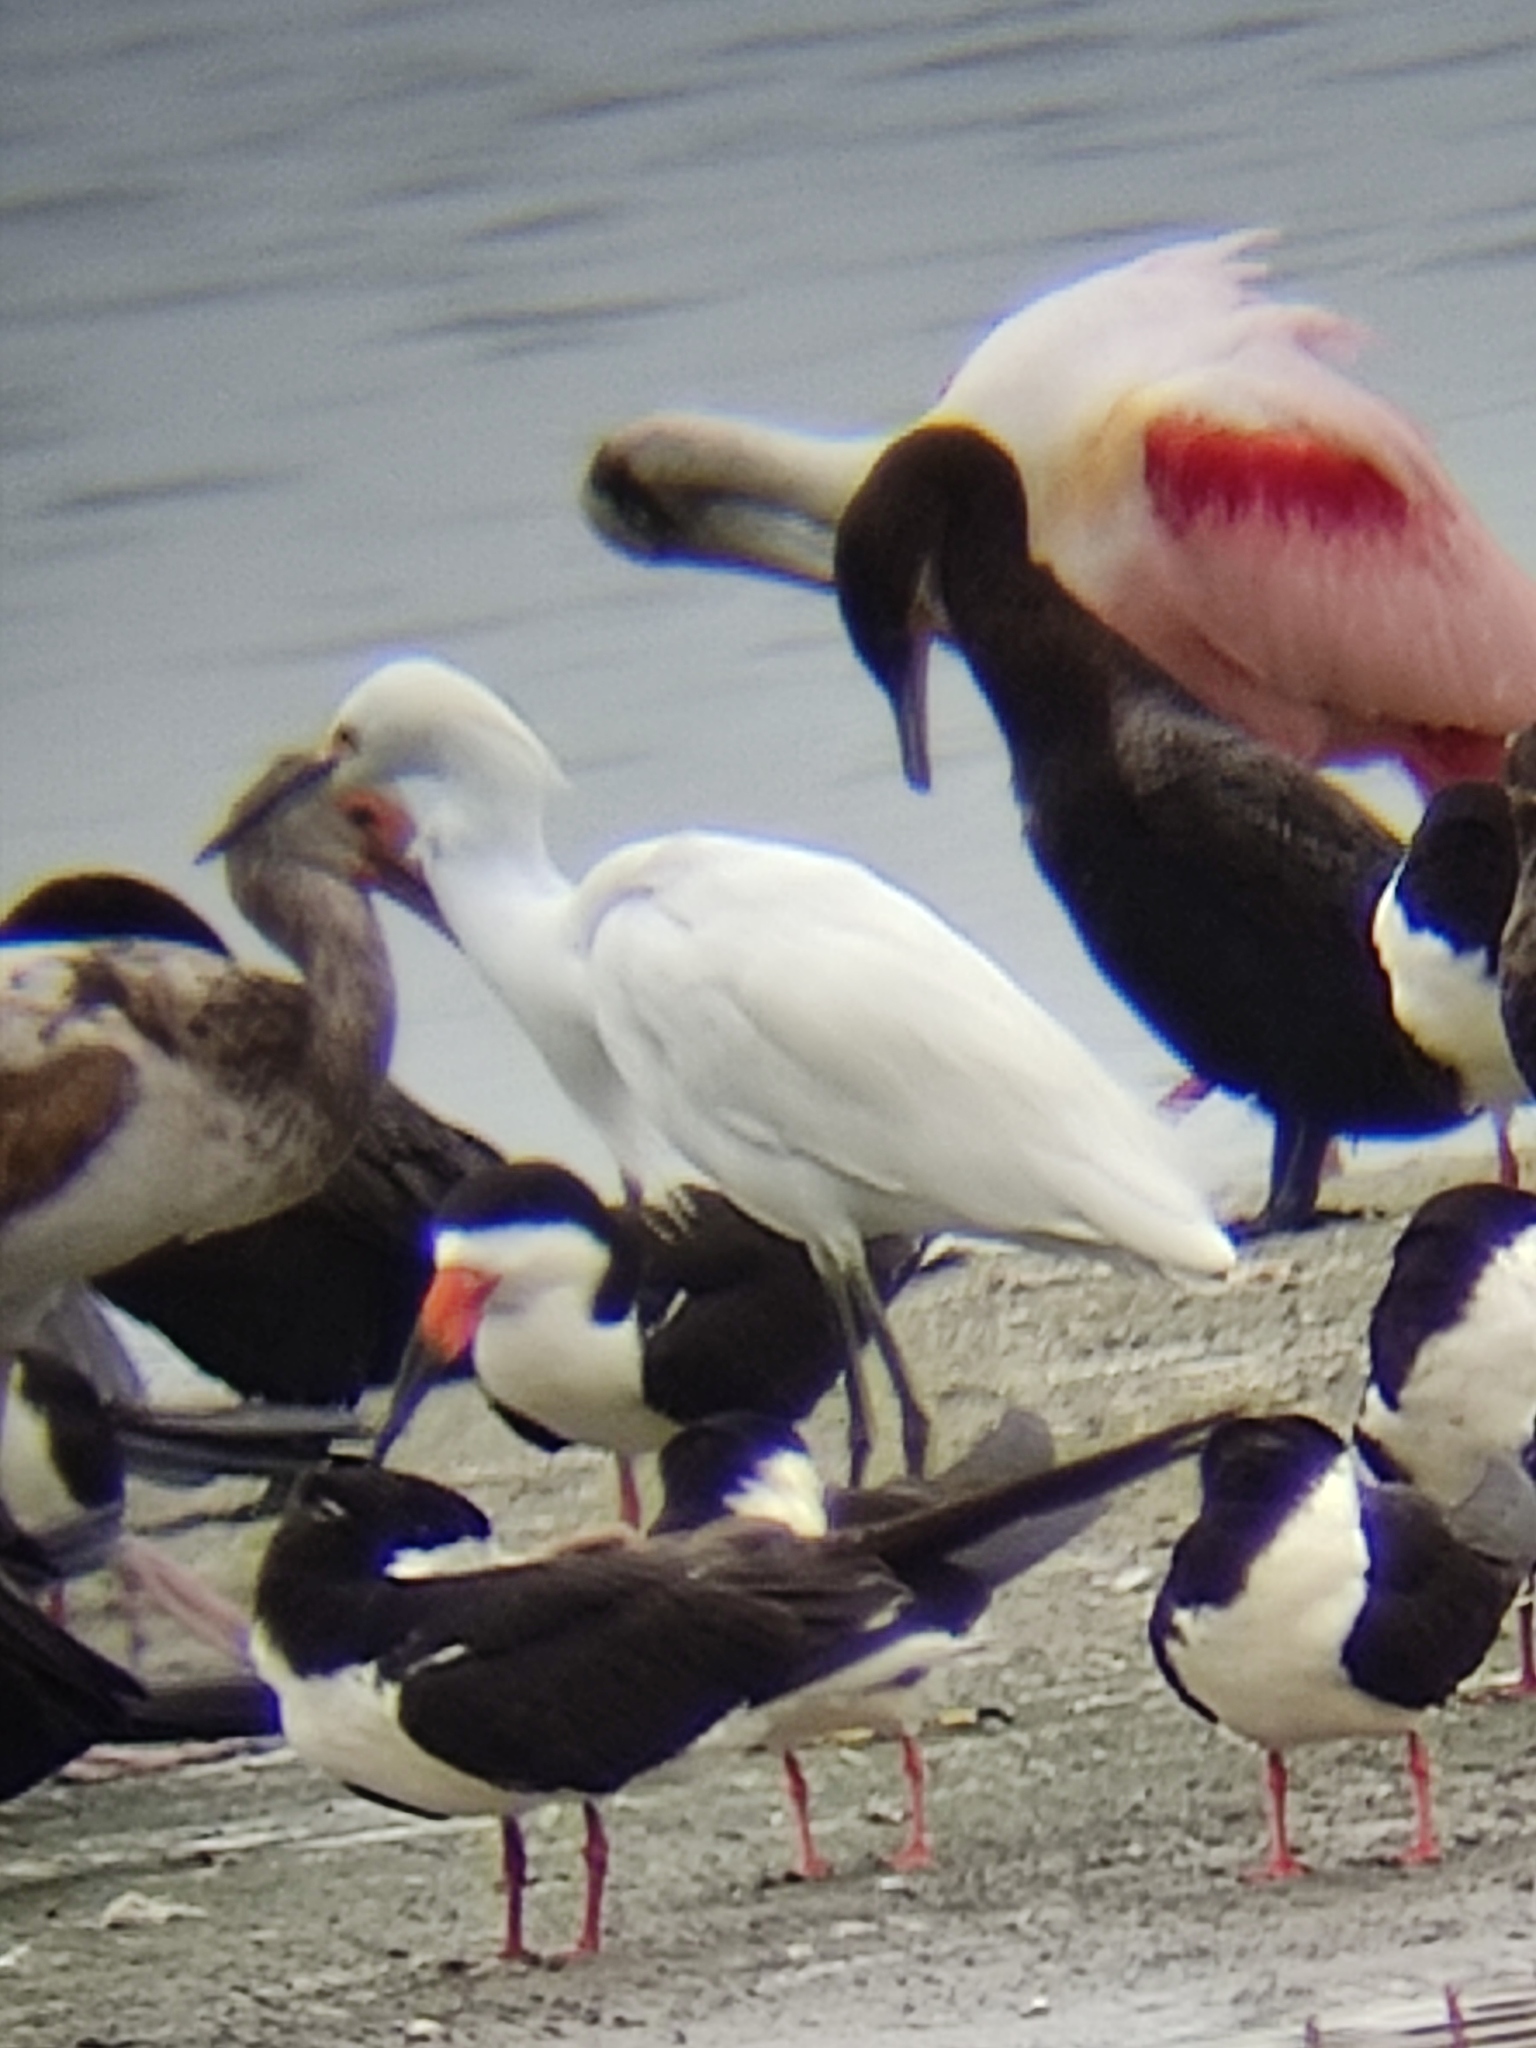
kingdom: Animalia
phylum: Chordata
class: Aves
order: Pelecaniformes
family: Ardeidae
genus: Egretta
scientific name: Egretta thula
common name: Snowy egret
